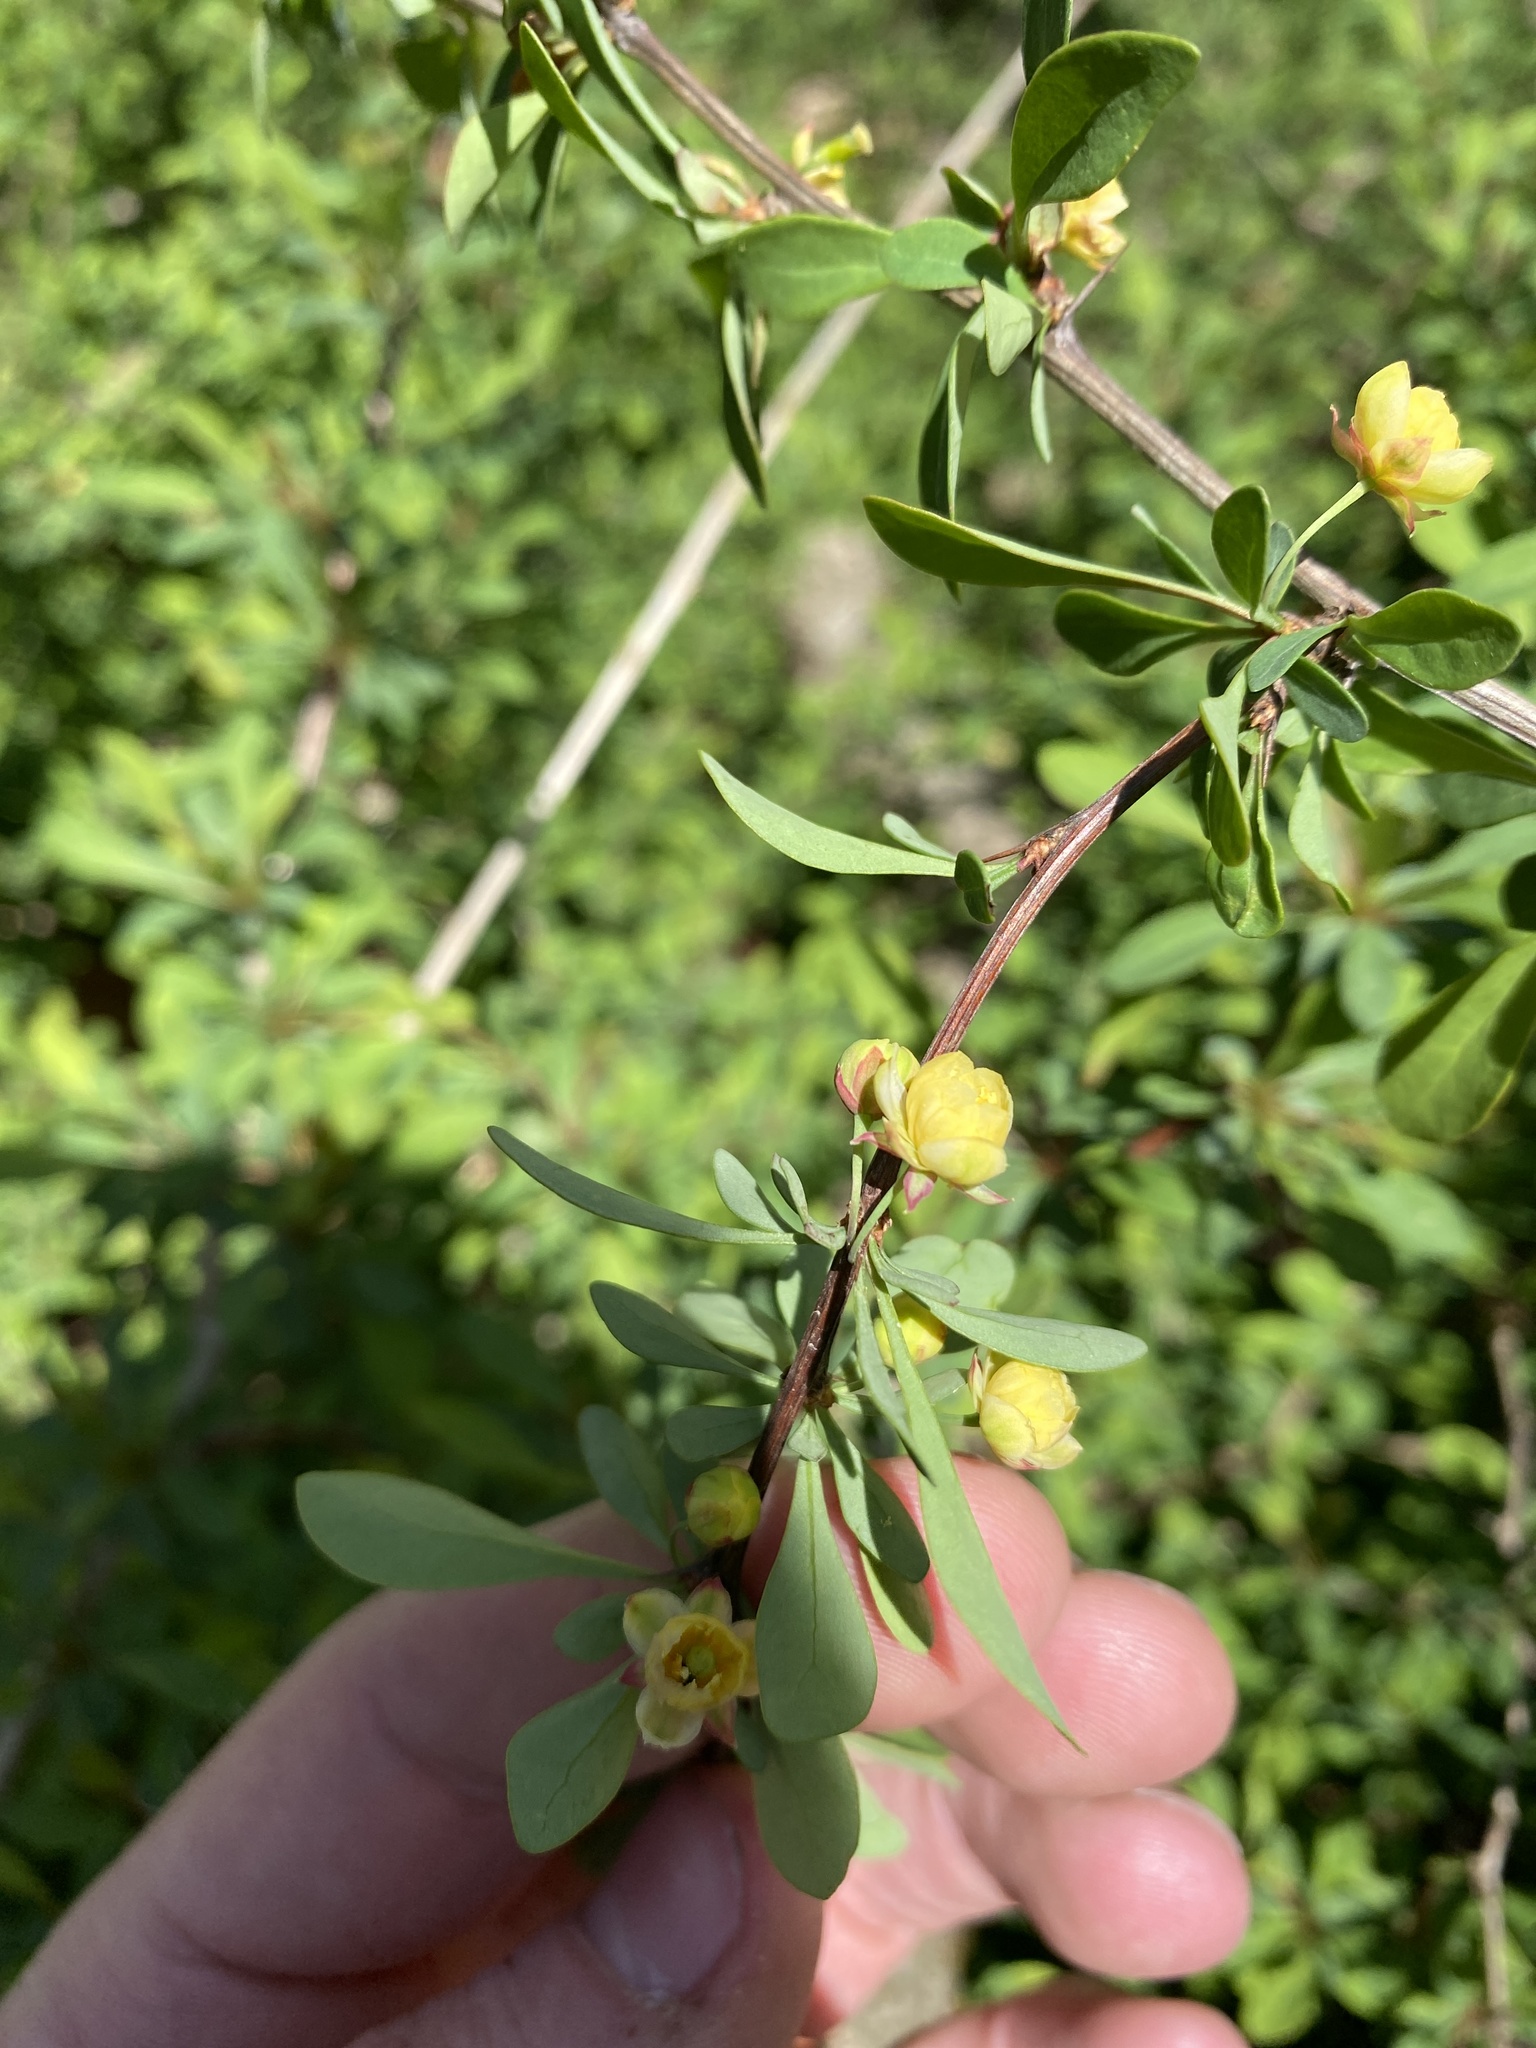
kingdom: Plantae
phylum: Tracheophyta
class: Magnoliopsida
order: Ranunculales
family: Berberidaceae
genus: Berberis
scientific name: Berberis thunbergii
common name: Japanese barberry
